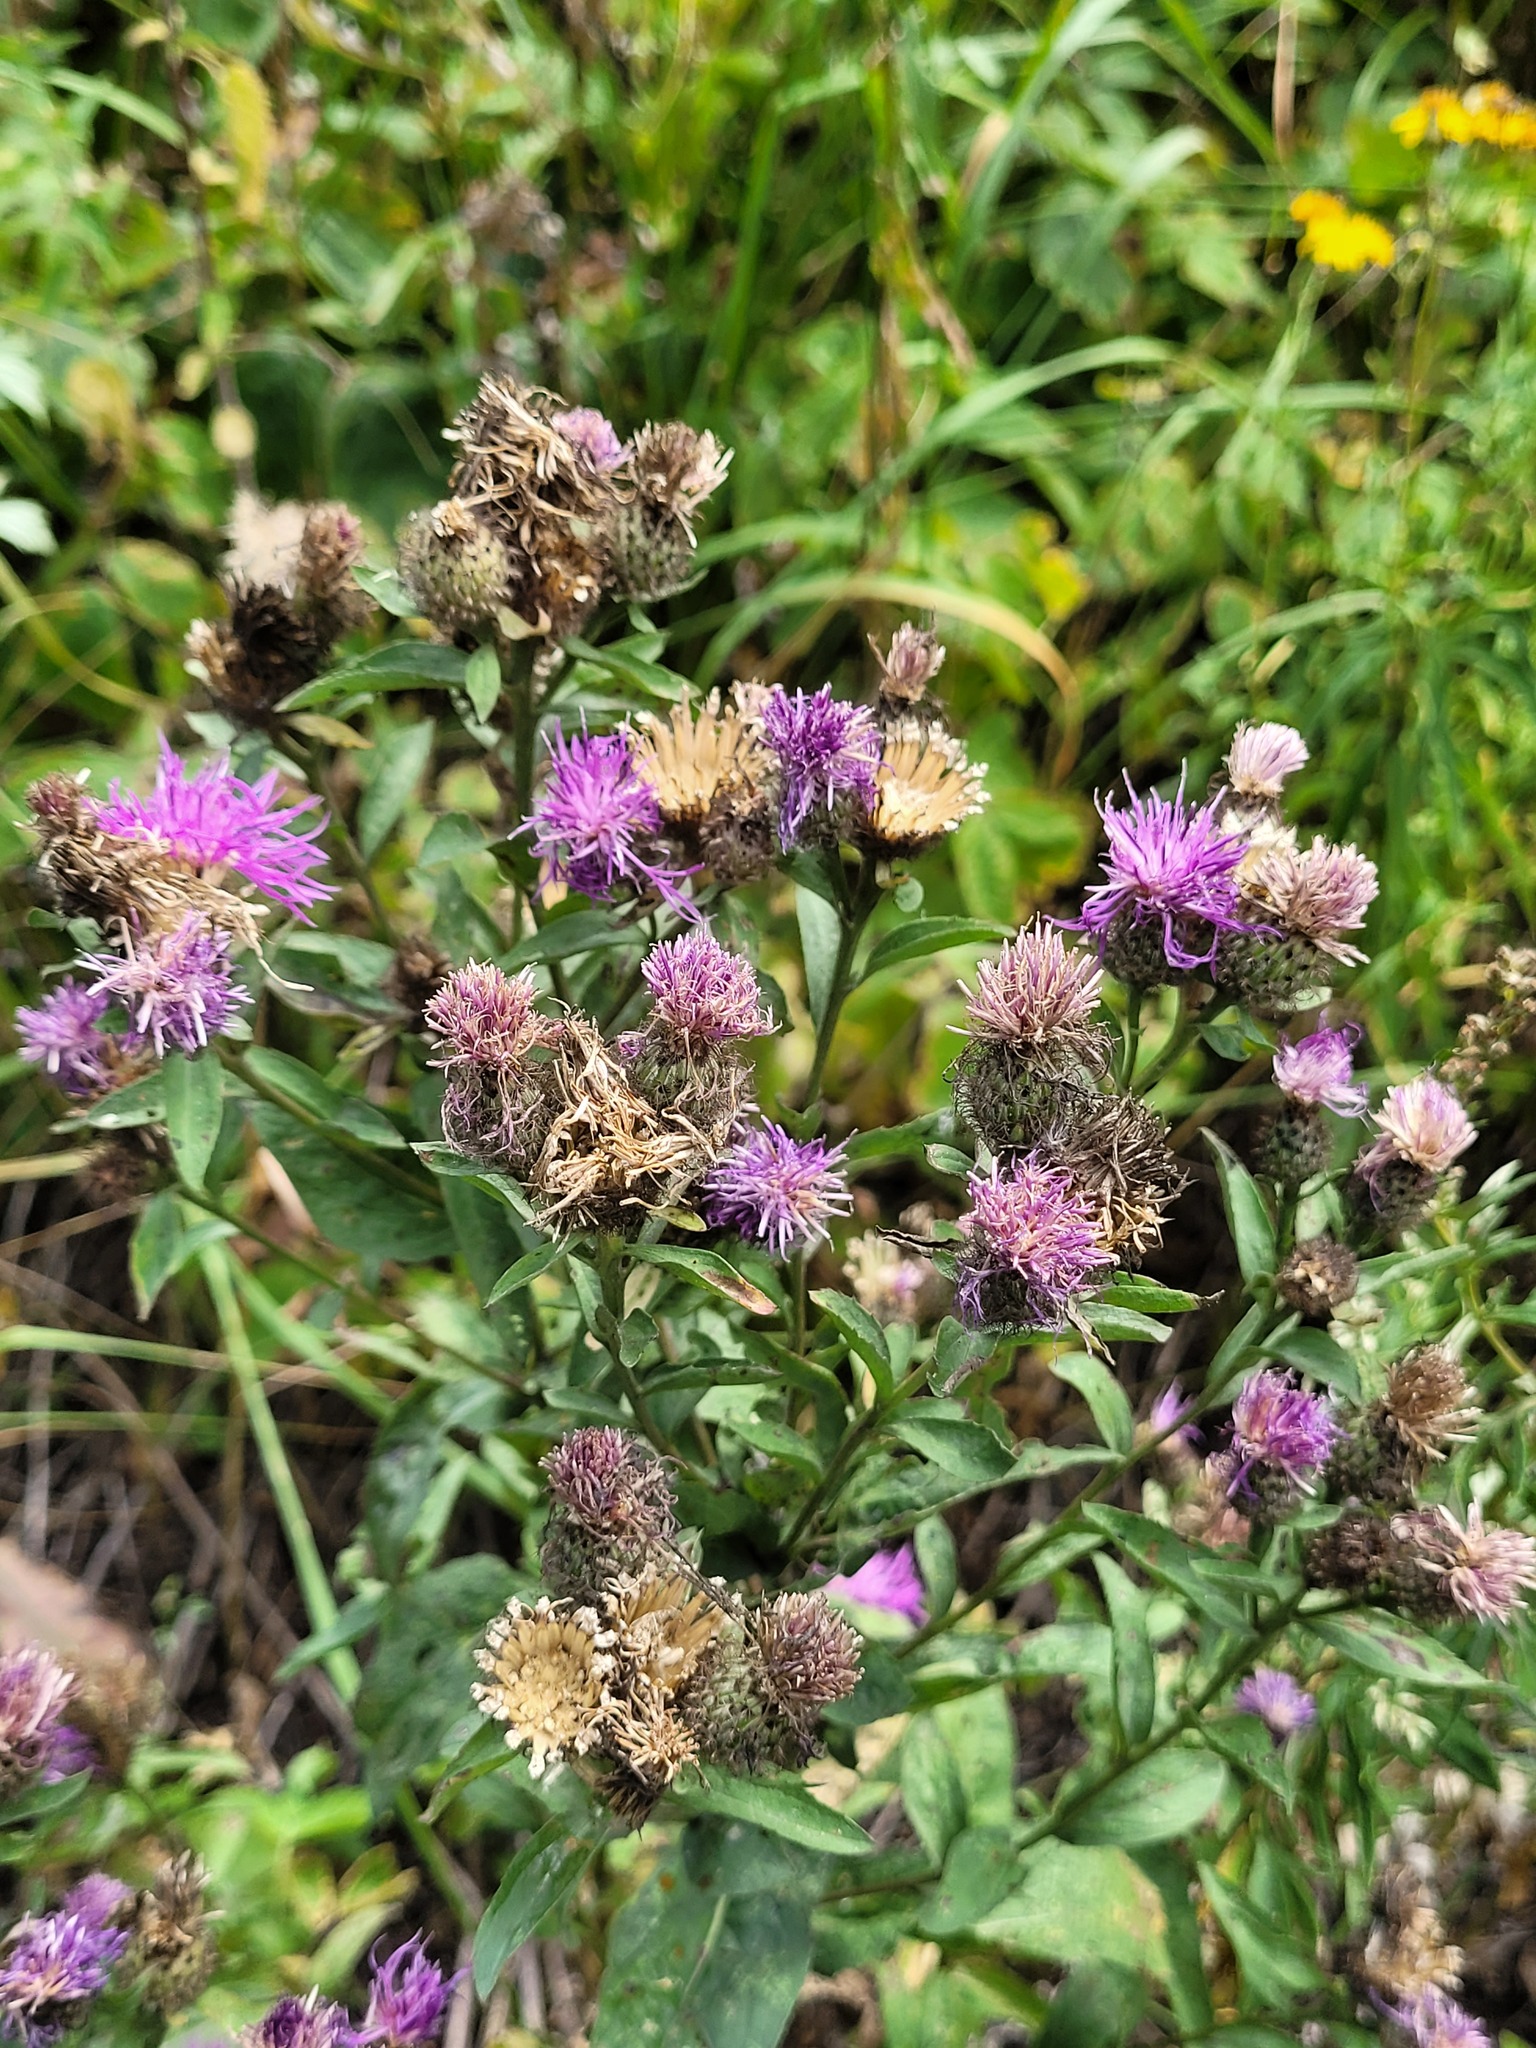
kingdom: Plantae
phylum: Tracheophyta
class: Magnoliopsida
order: Asterales
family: Asteraceae
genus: Centaurea
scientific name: Centaurea pseudophrygia
